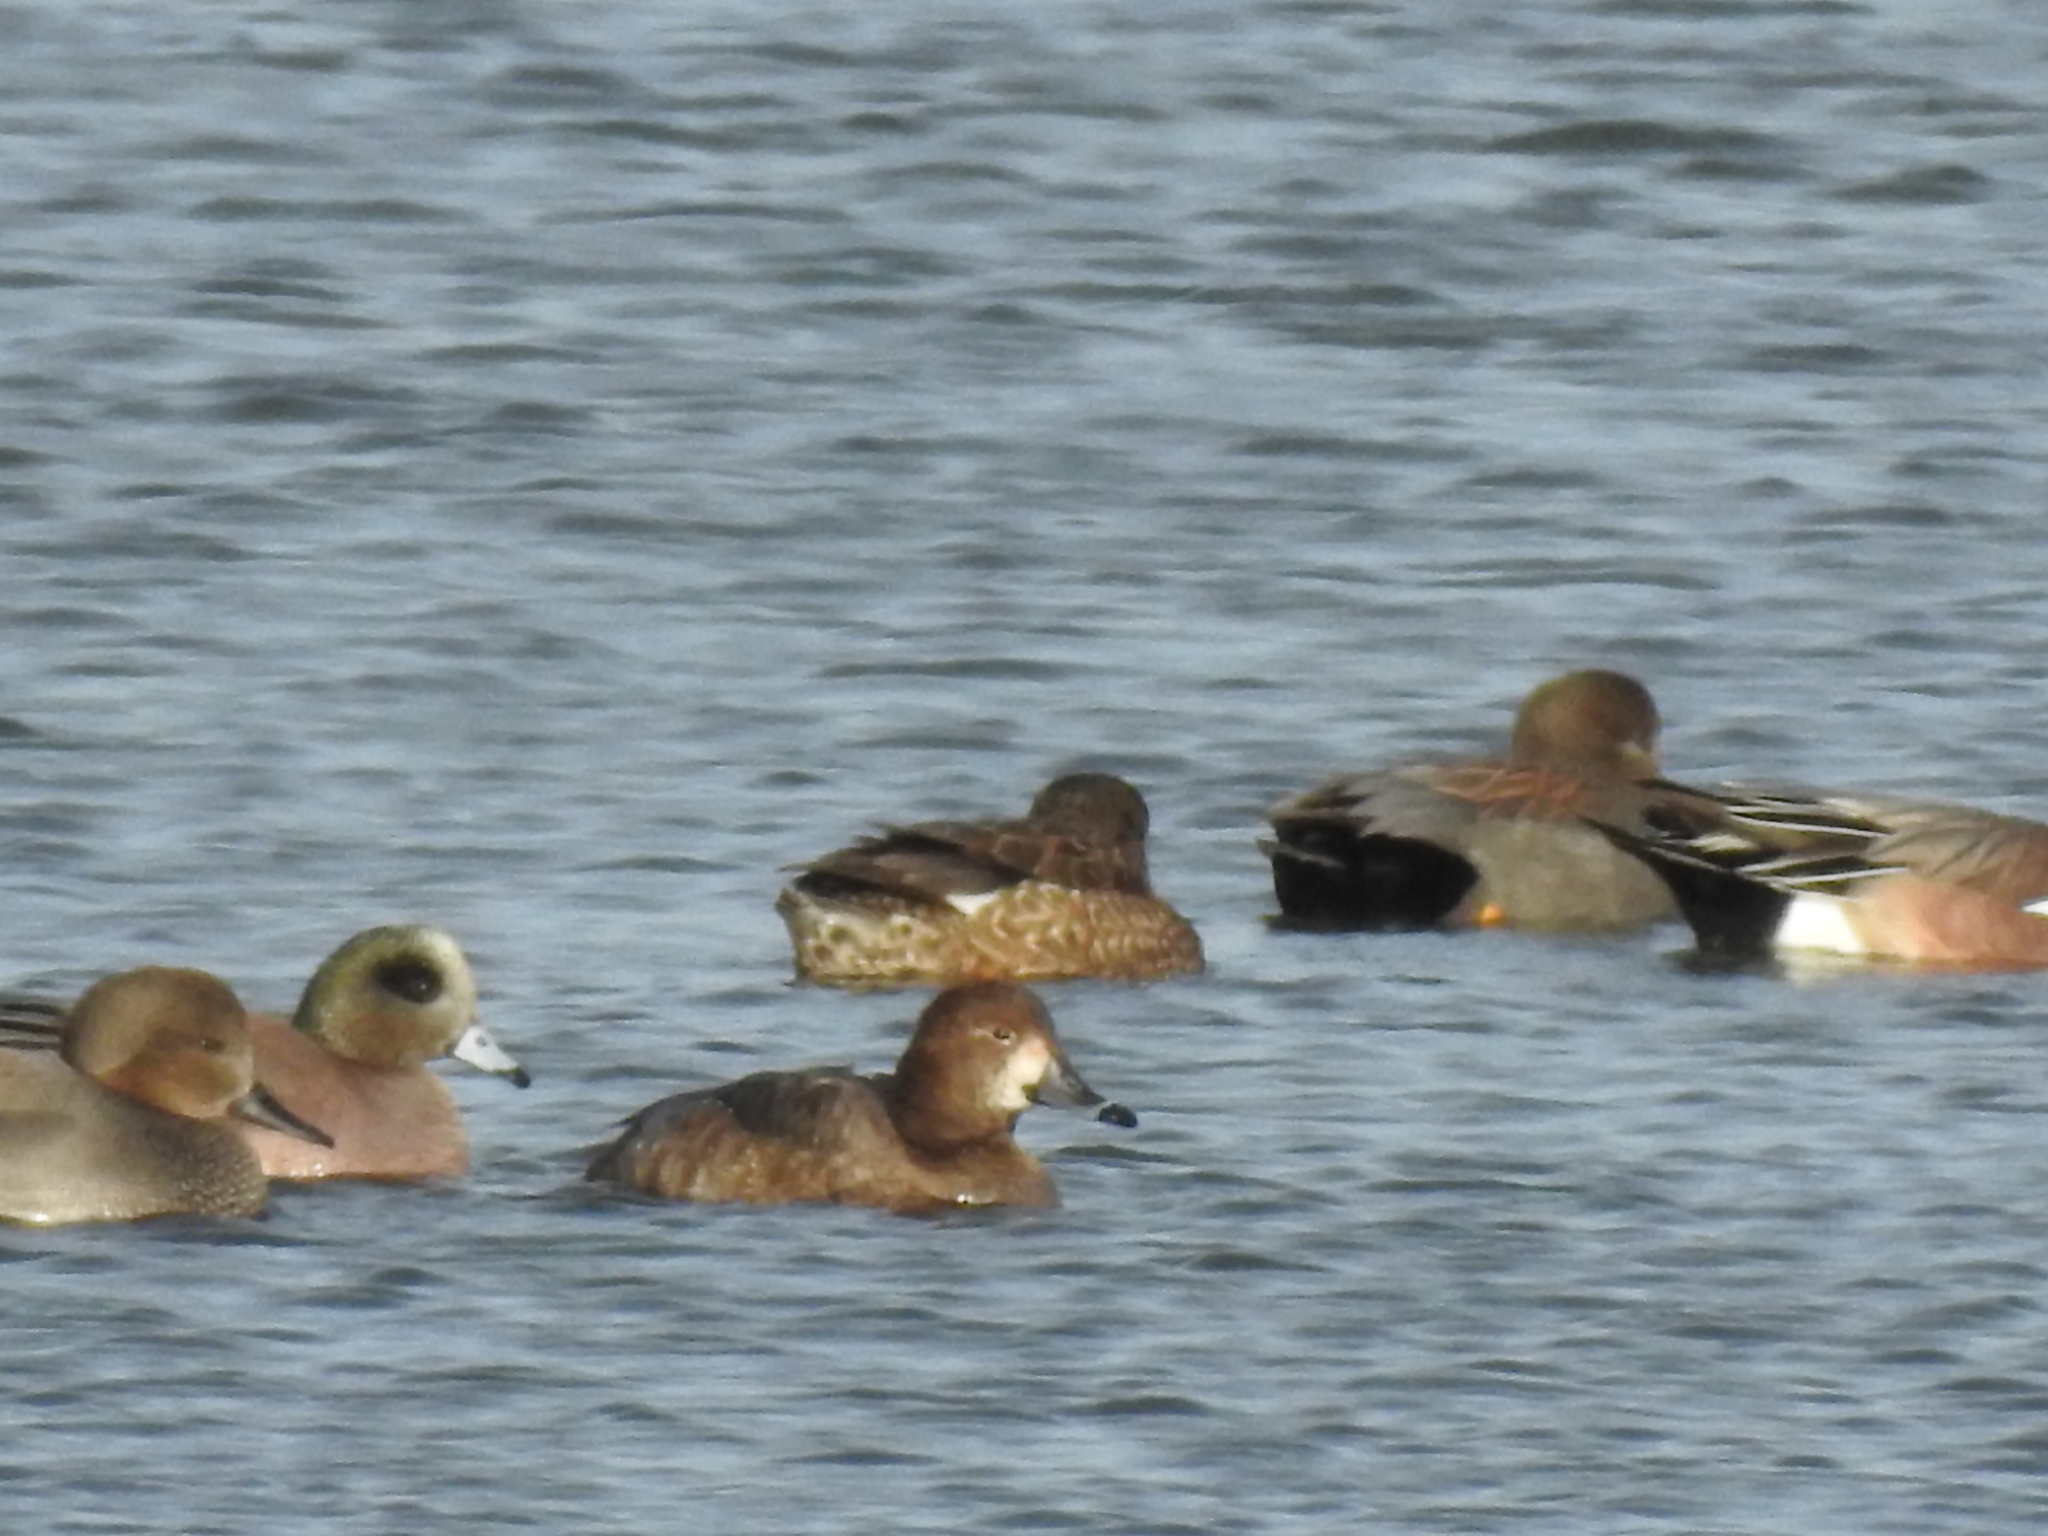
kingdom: Animalia
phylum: Chordata
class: Aves
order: Anseriformes
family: Anatidae
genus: Mareca
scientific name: Mareca americana
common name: American wigeon
